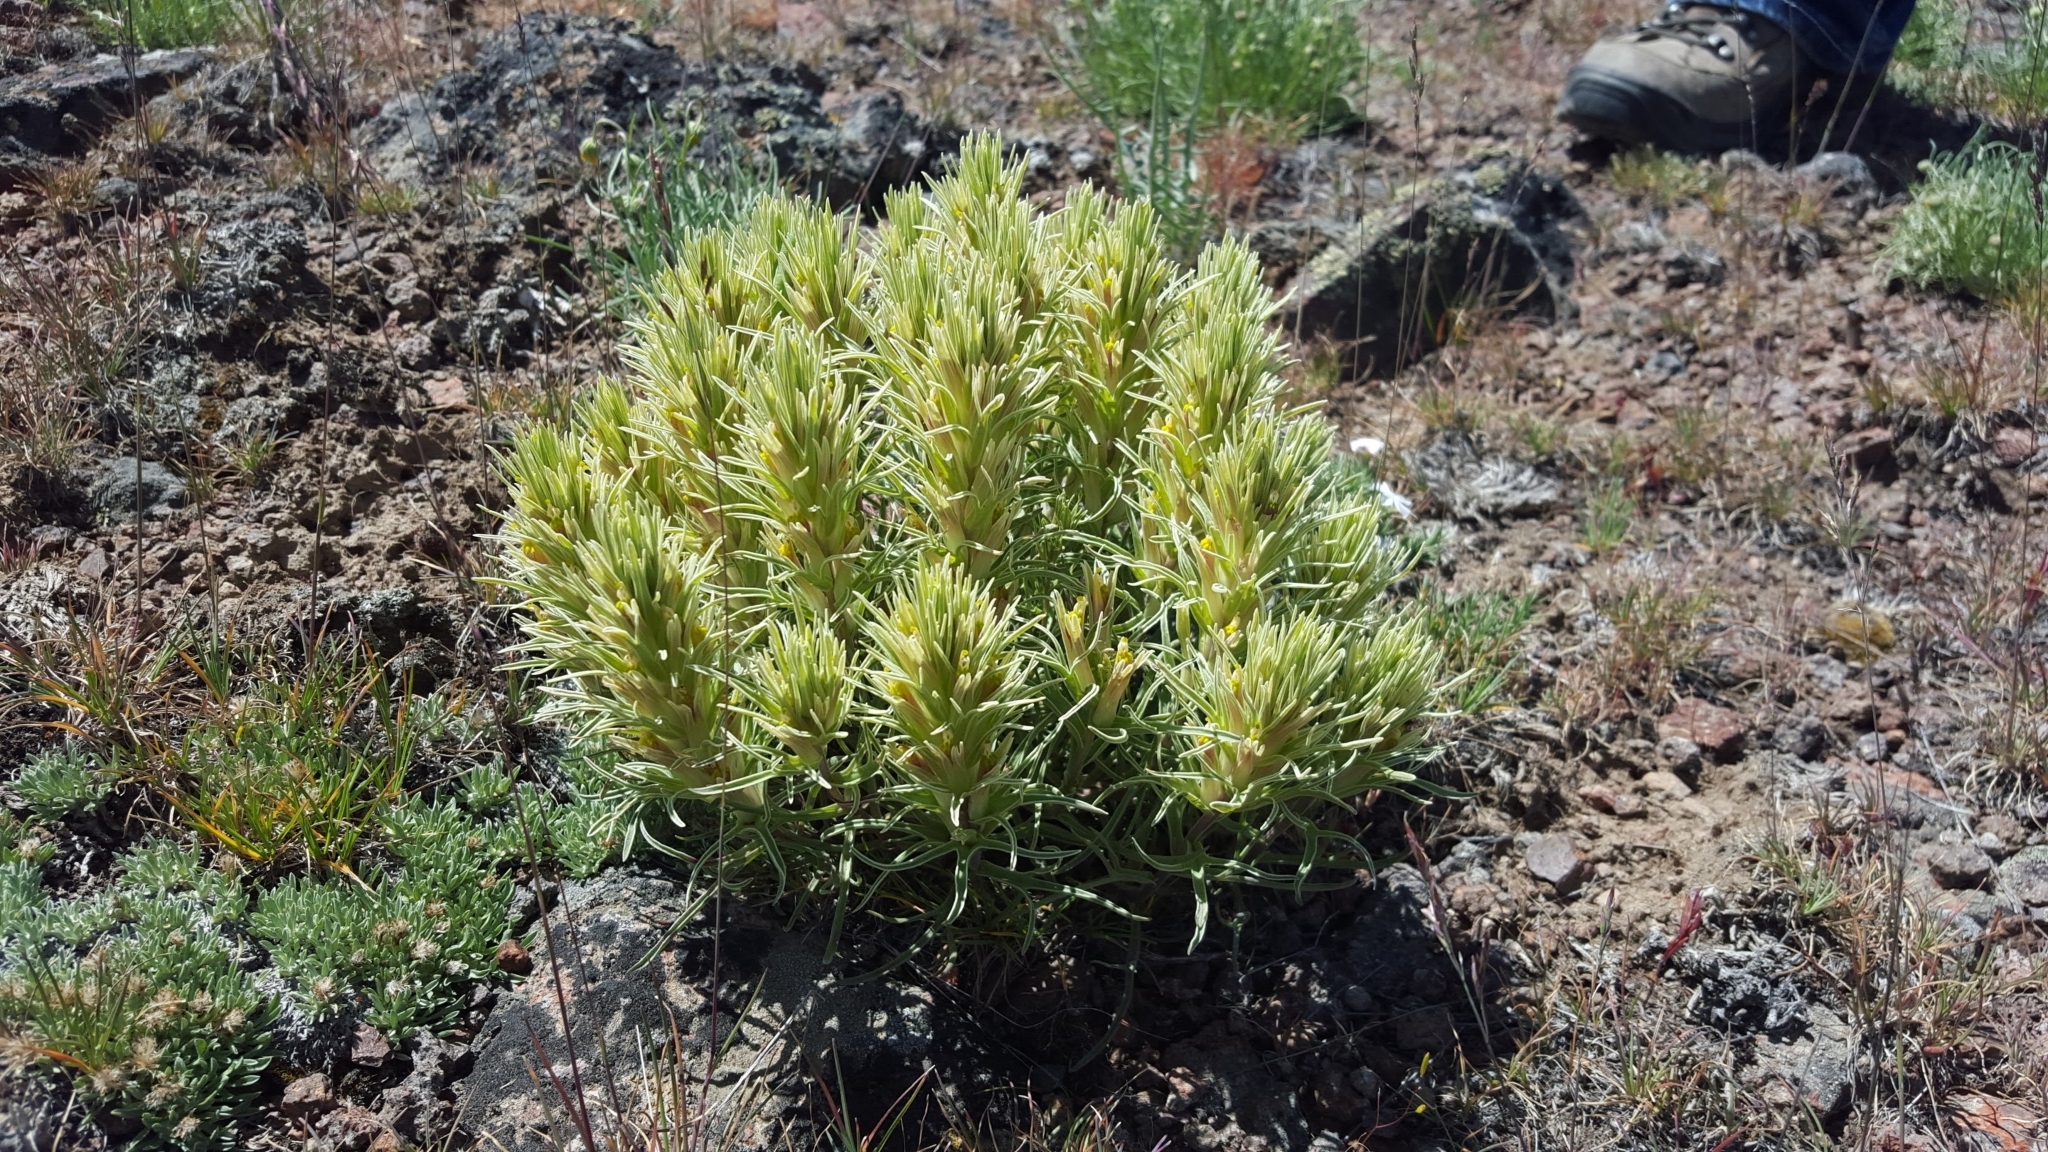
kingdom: Plantae
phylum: Tracheophyta
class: Magnoliopsida
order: Lamiales
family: Orobanchaceae
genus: Castilleja
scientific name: Castilleja pallescens
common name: Pale paintbrush
